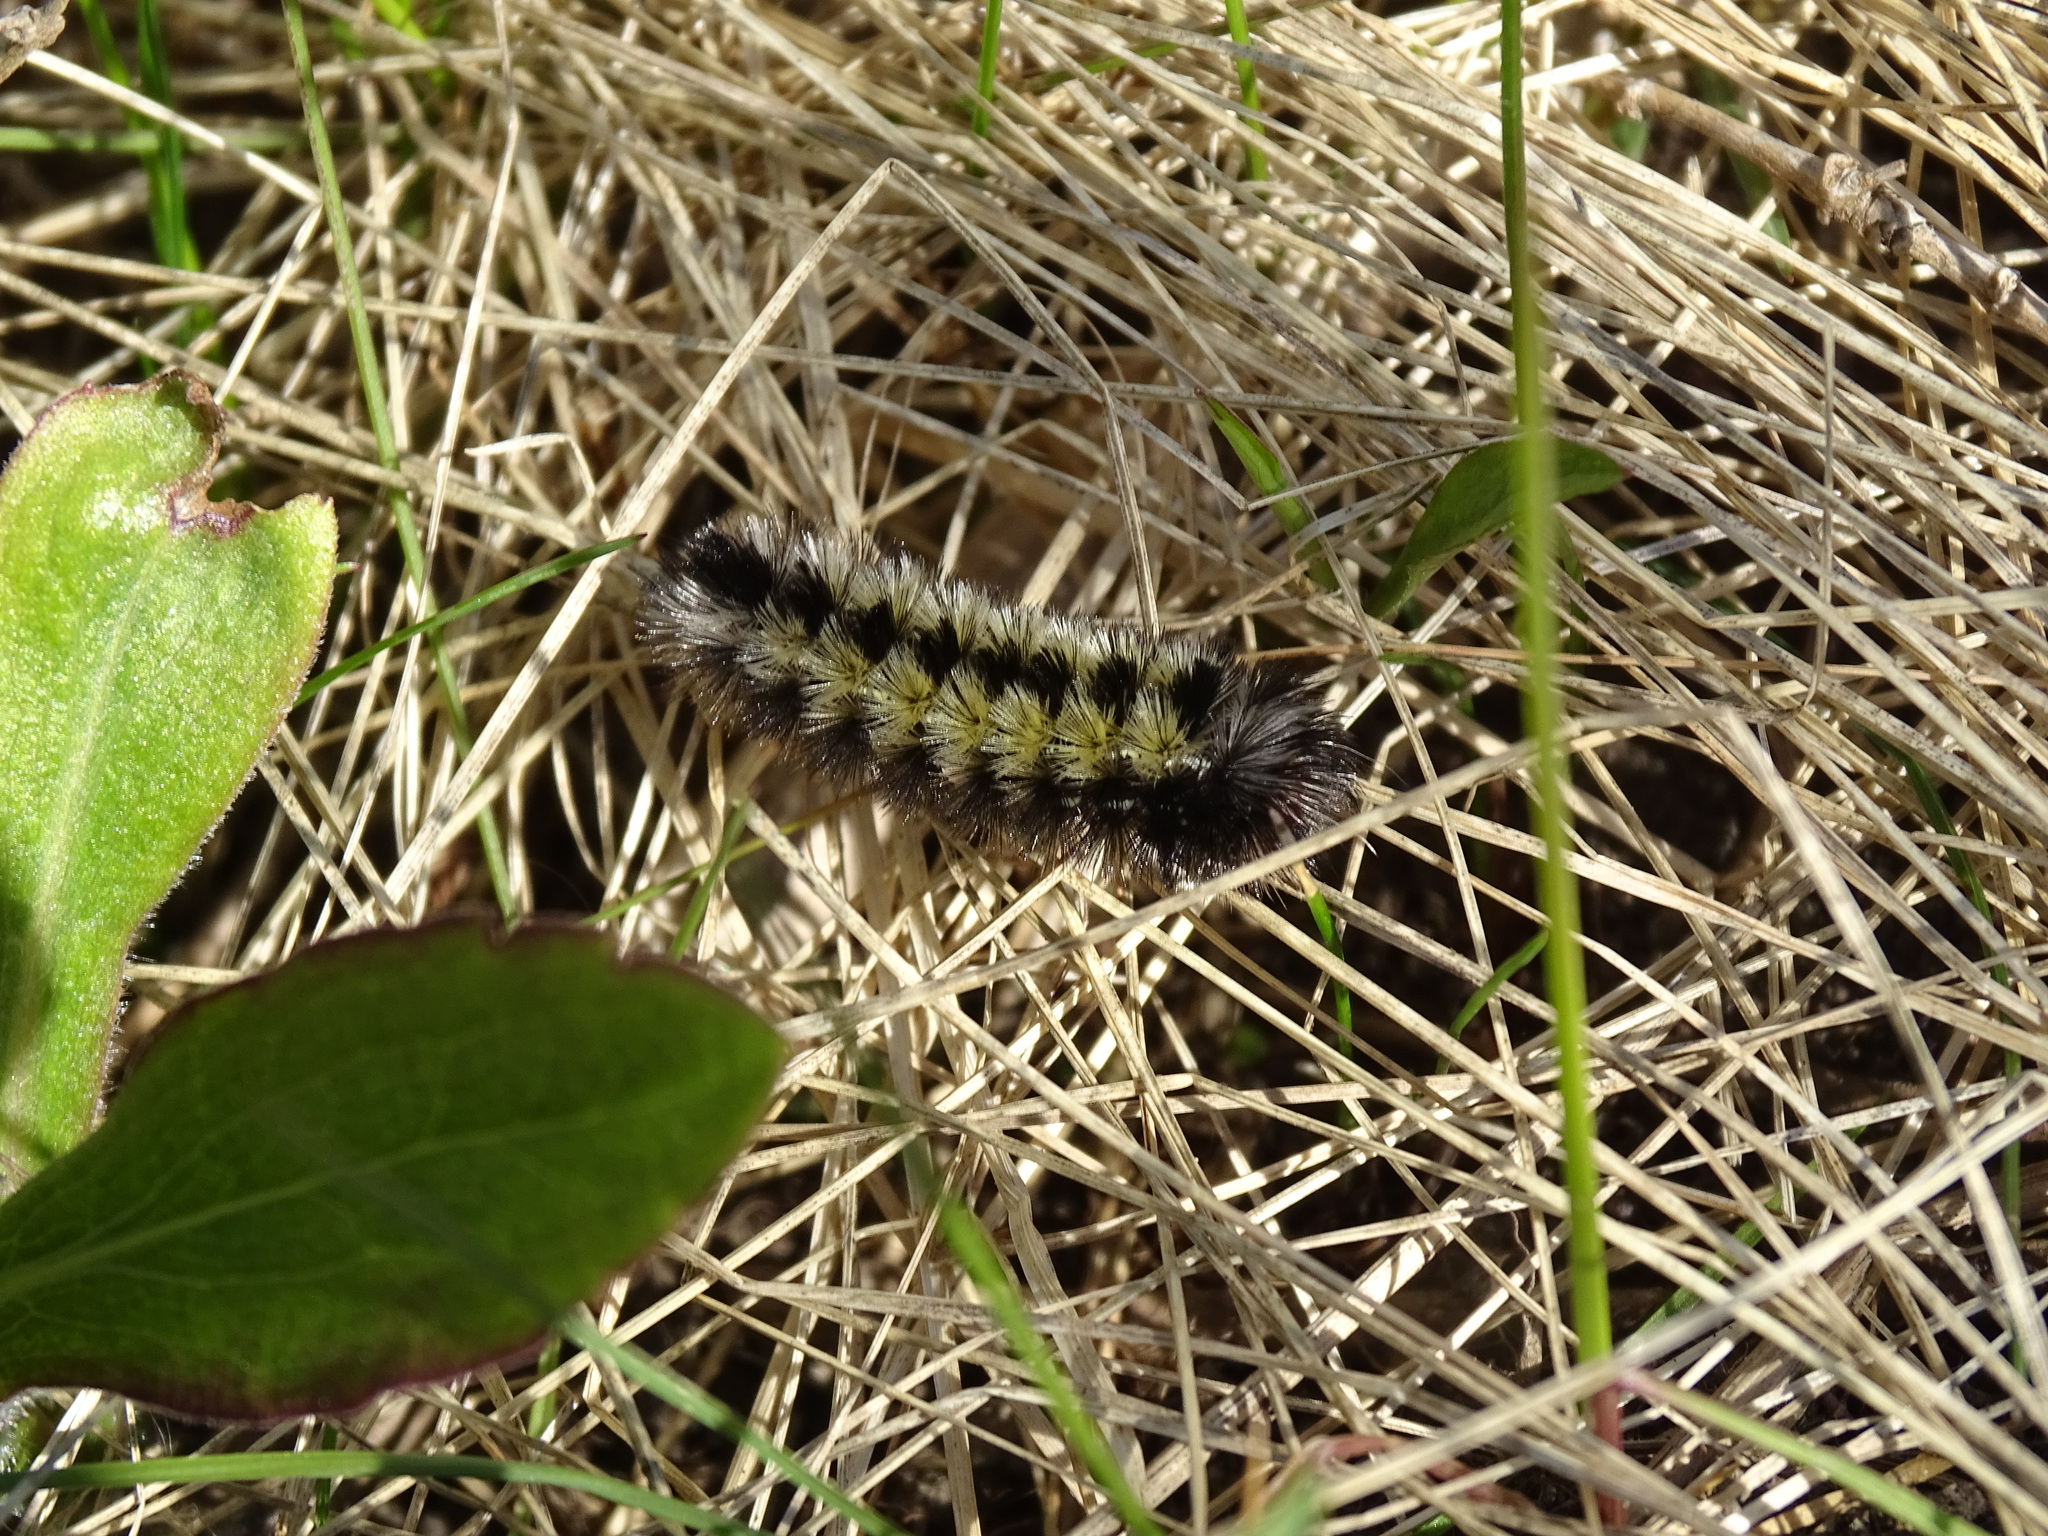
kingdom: Animalia
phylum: Arthropoda
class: Insecta
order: Lepidoptera
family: Erebidae
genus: Ctenucha
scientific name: Ctenucha virginica
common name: Virginia ctenucha moth
